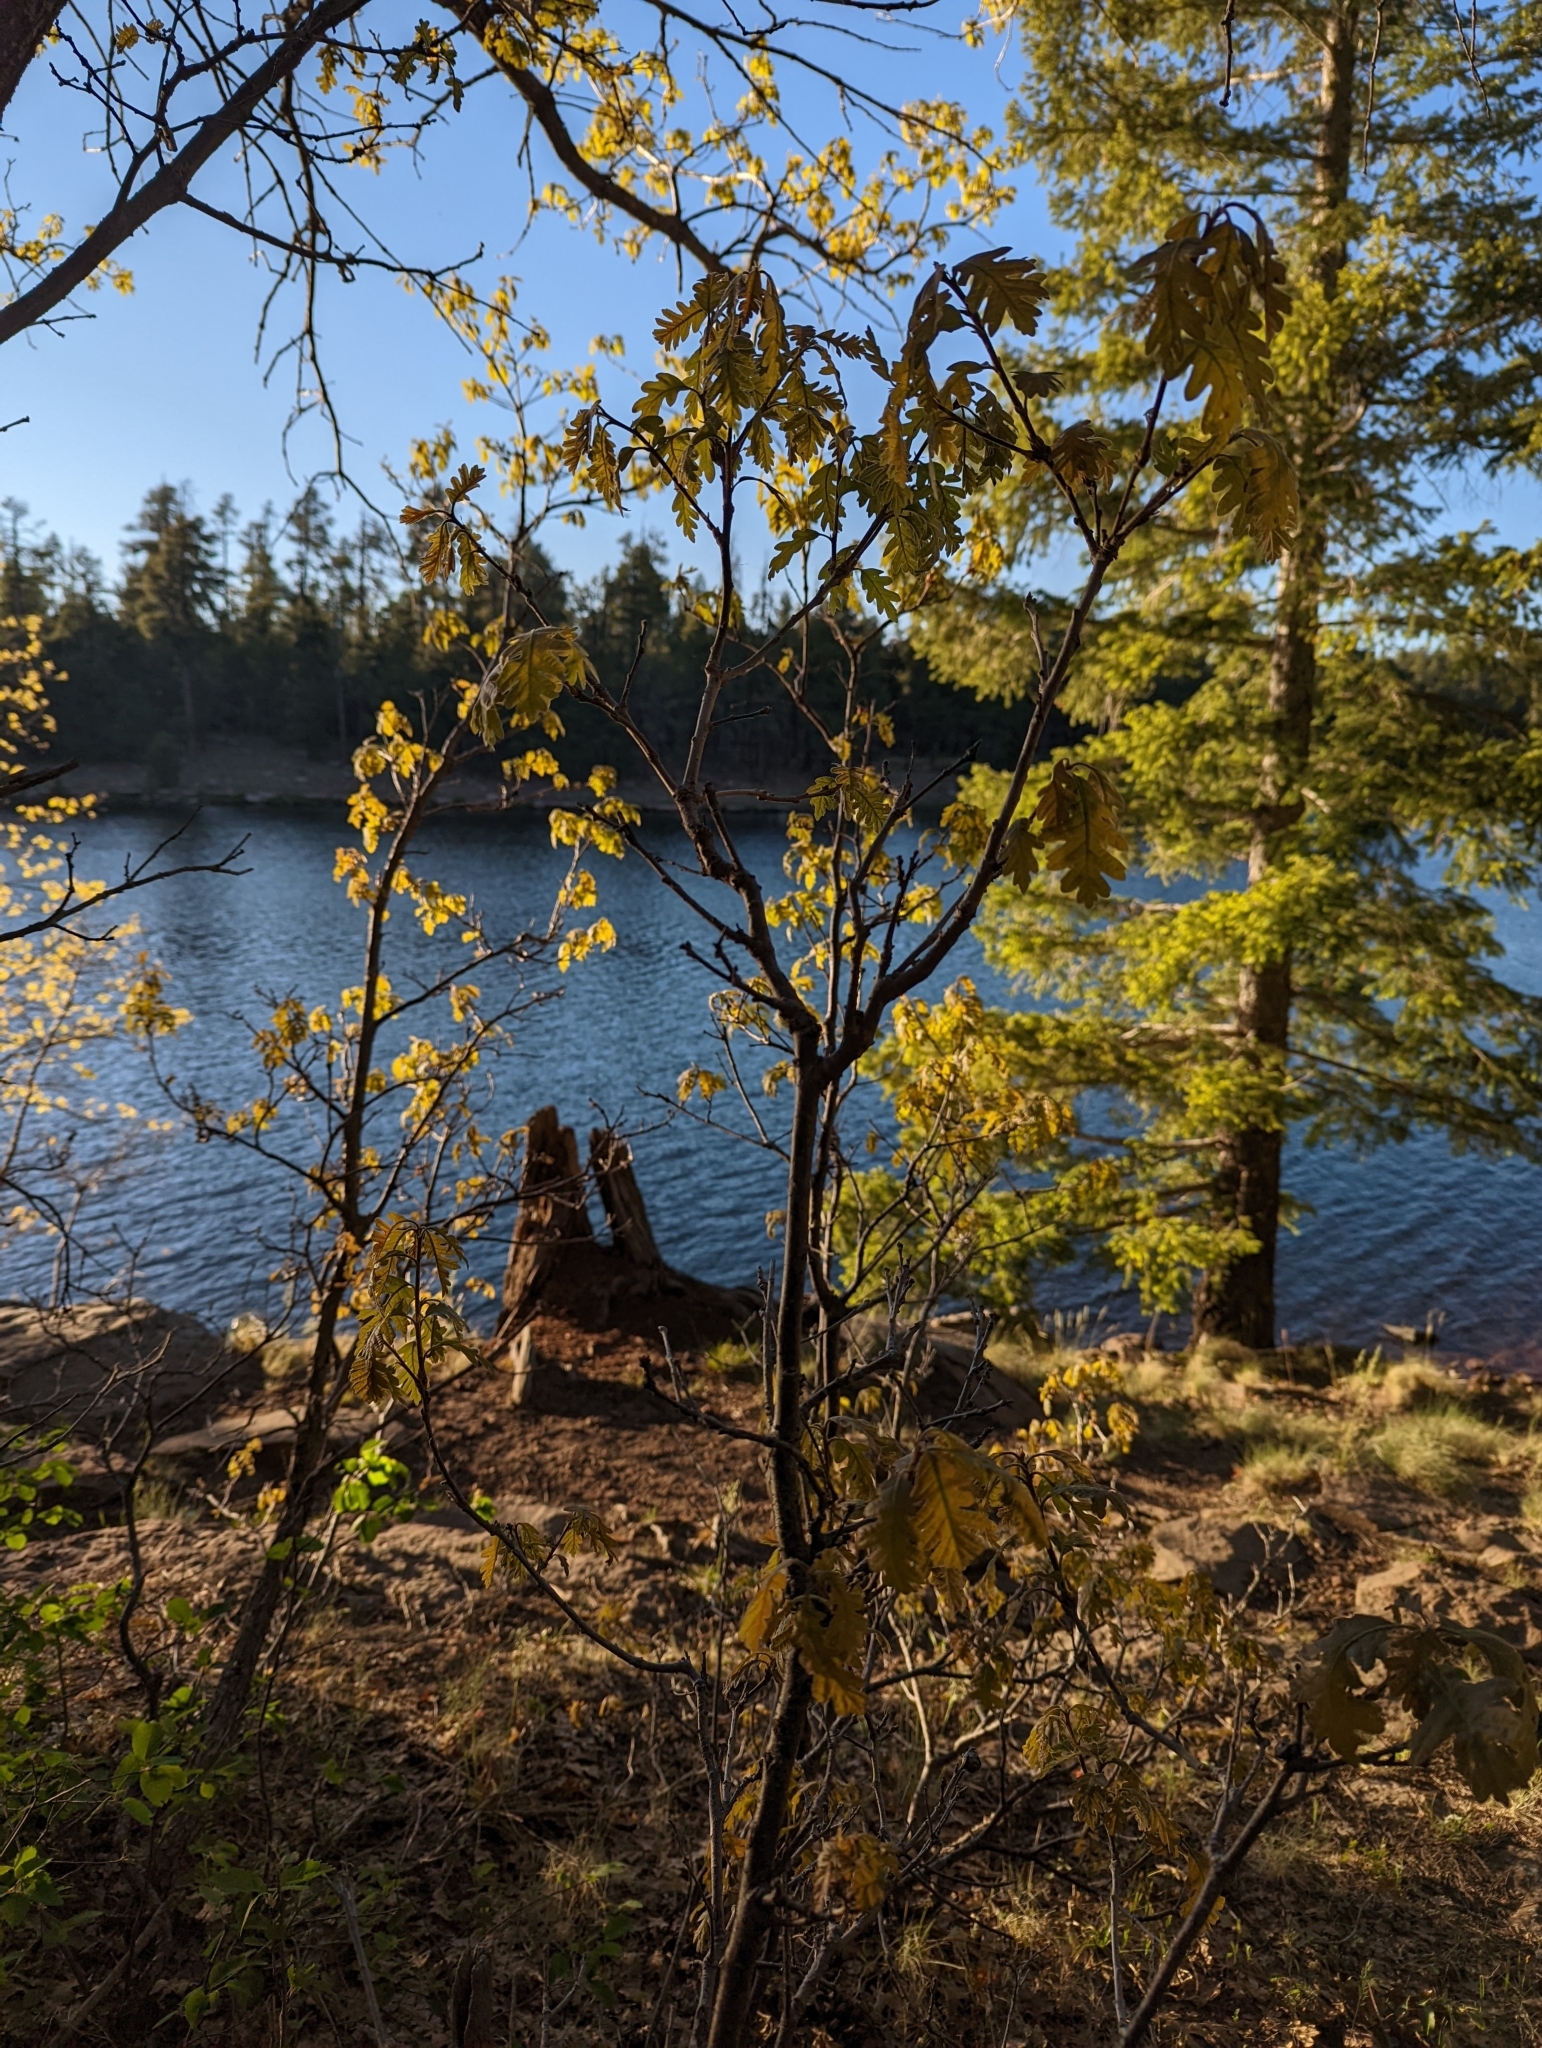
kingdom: Plantae
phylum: Tracheophyta
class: Magnoliopsida
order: Fagales
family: Fagaceae
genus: Quercus
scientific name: Quercus gambelii
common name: Gambel oak
